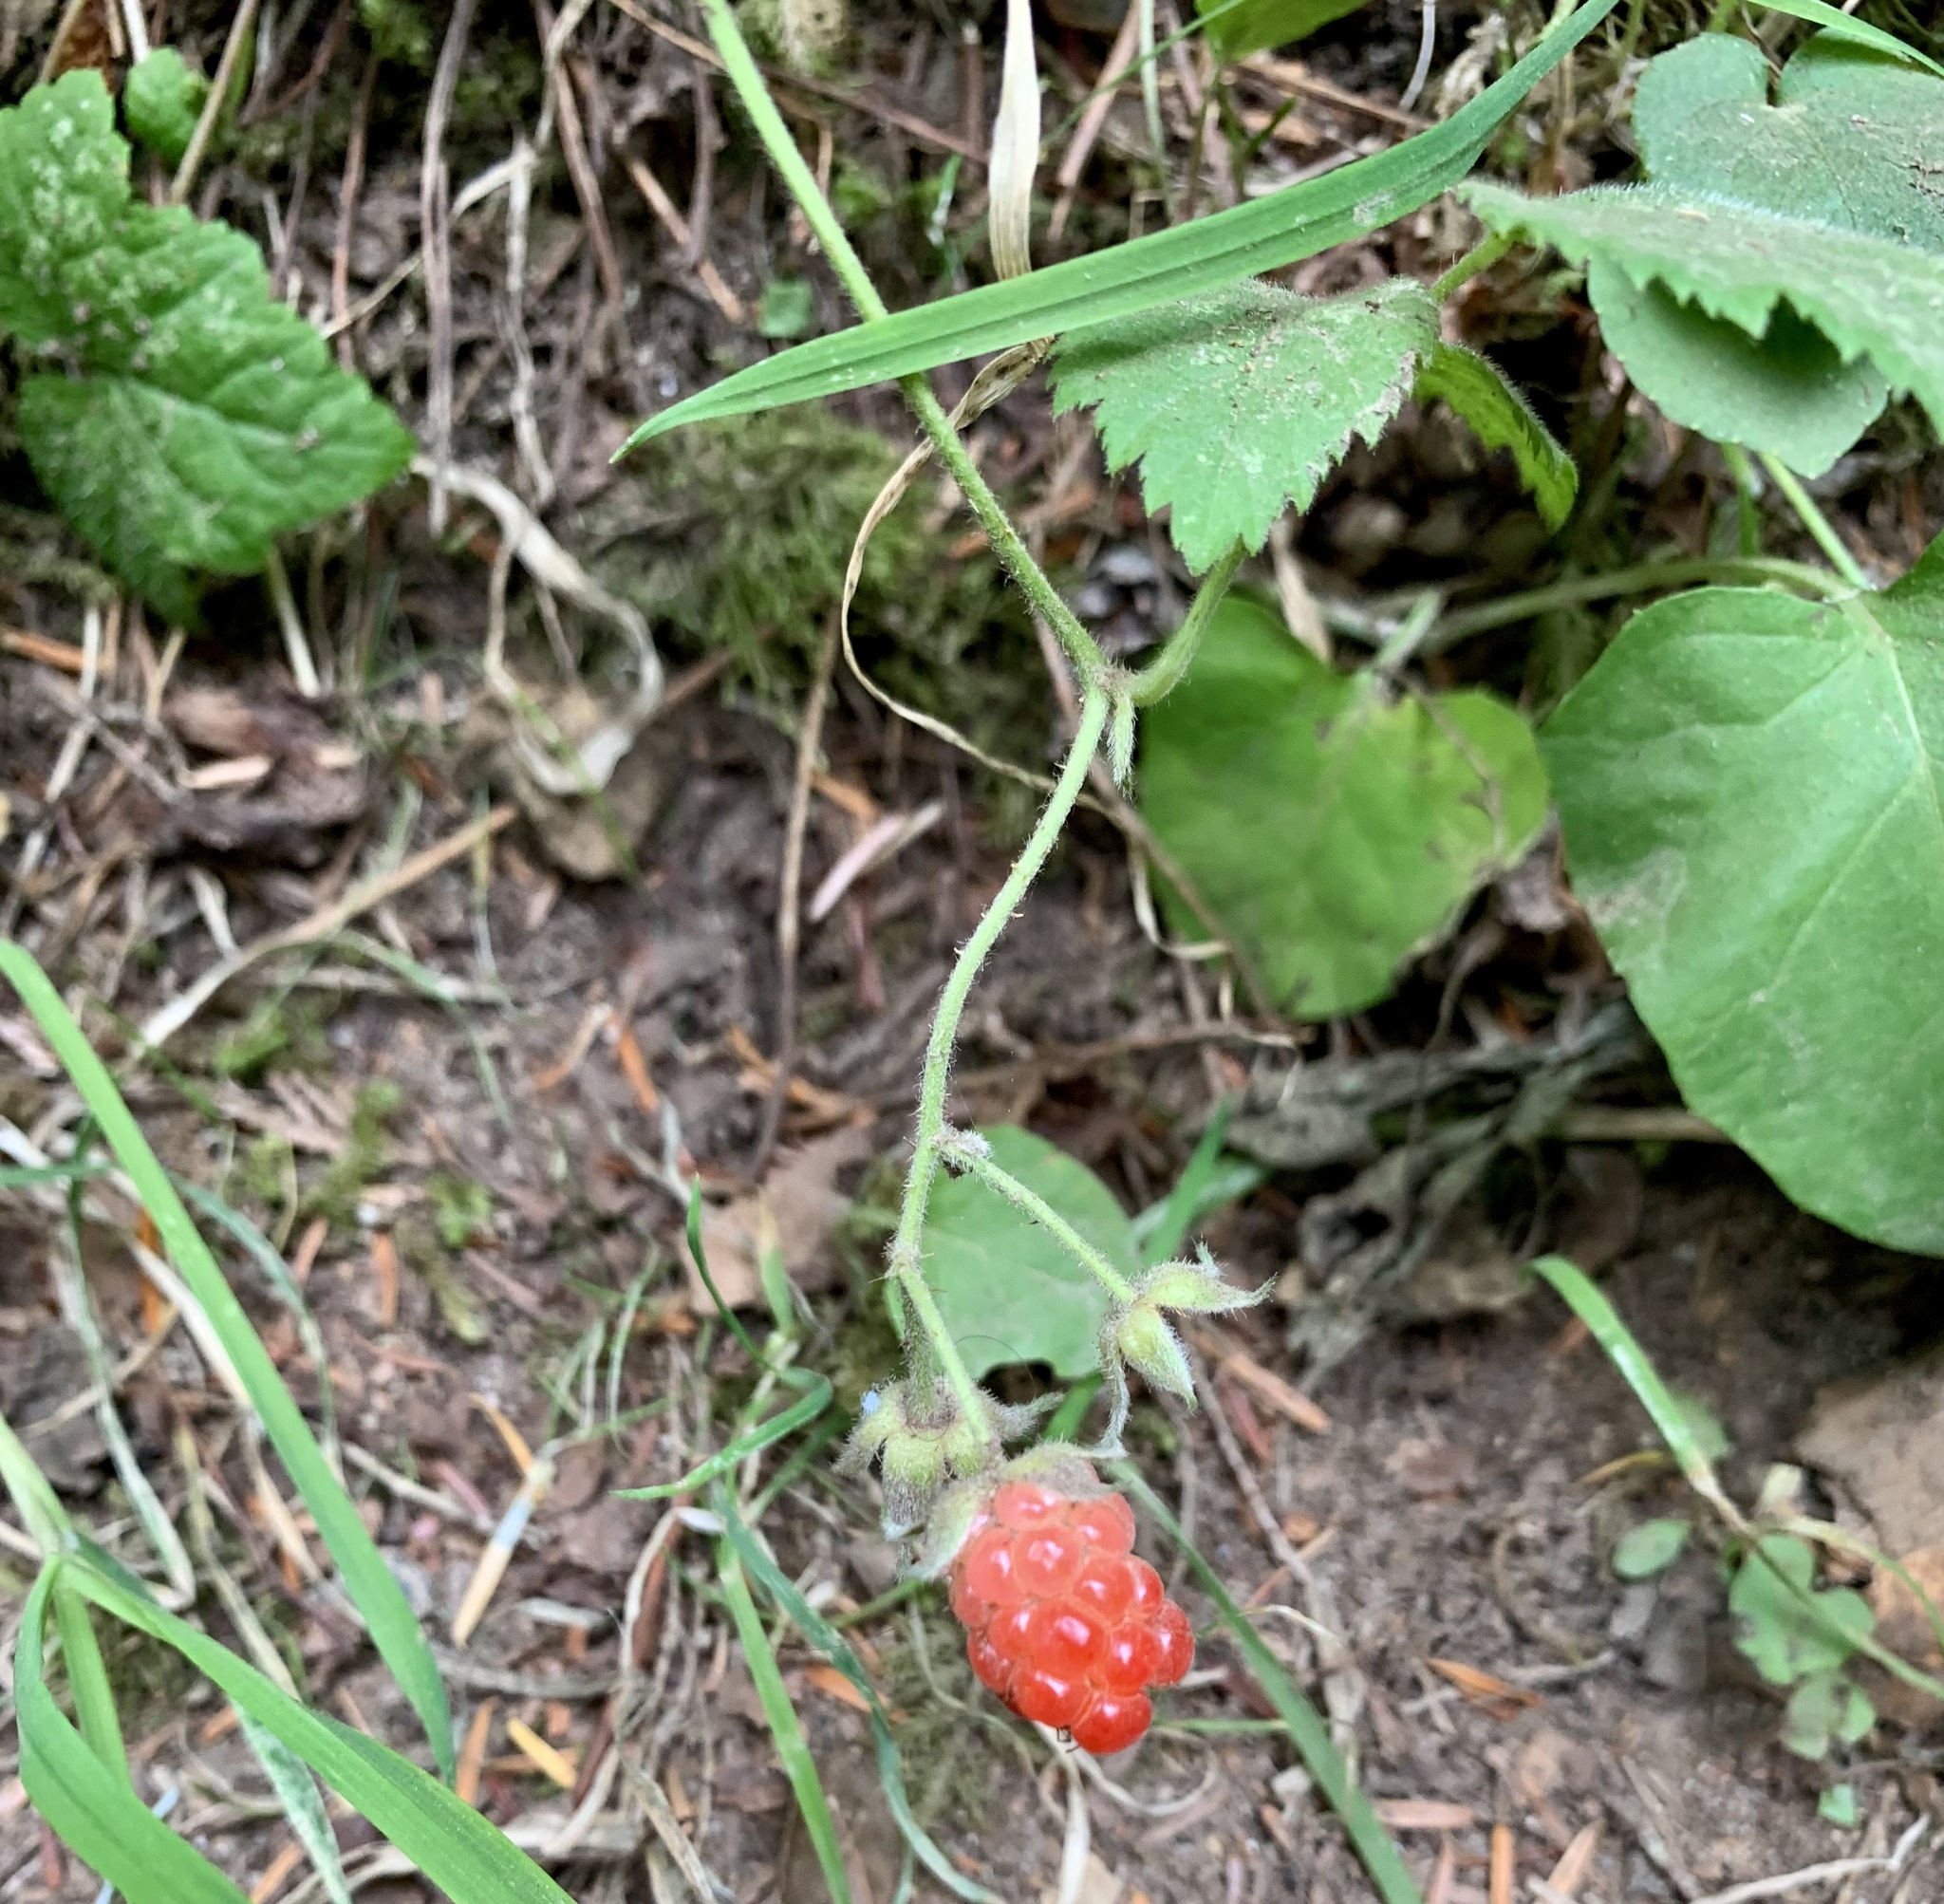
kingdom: Plantae
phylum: Tracheophyta
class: Magnoliopsida
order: Rosales
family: Rosaceae
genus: Rubus
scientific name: Rubus ursinus
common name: Pacific blackberry
